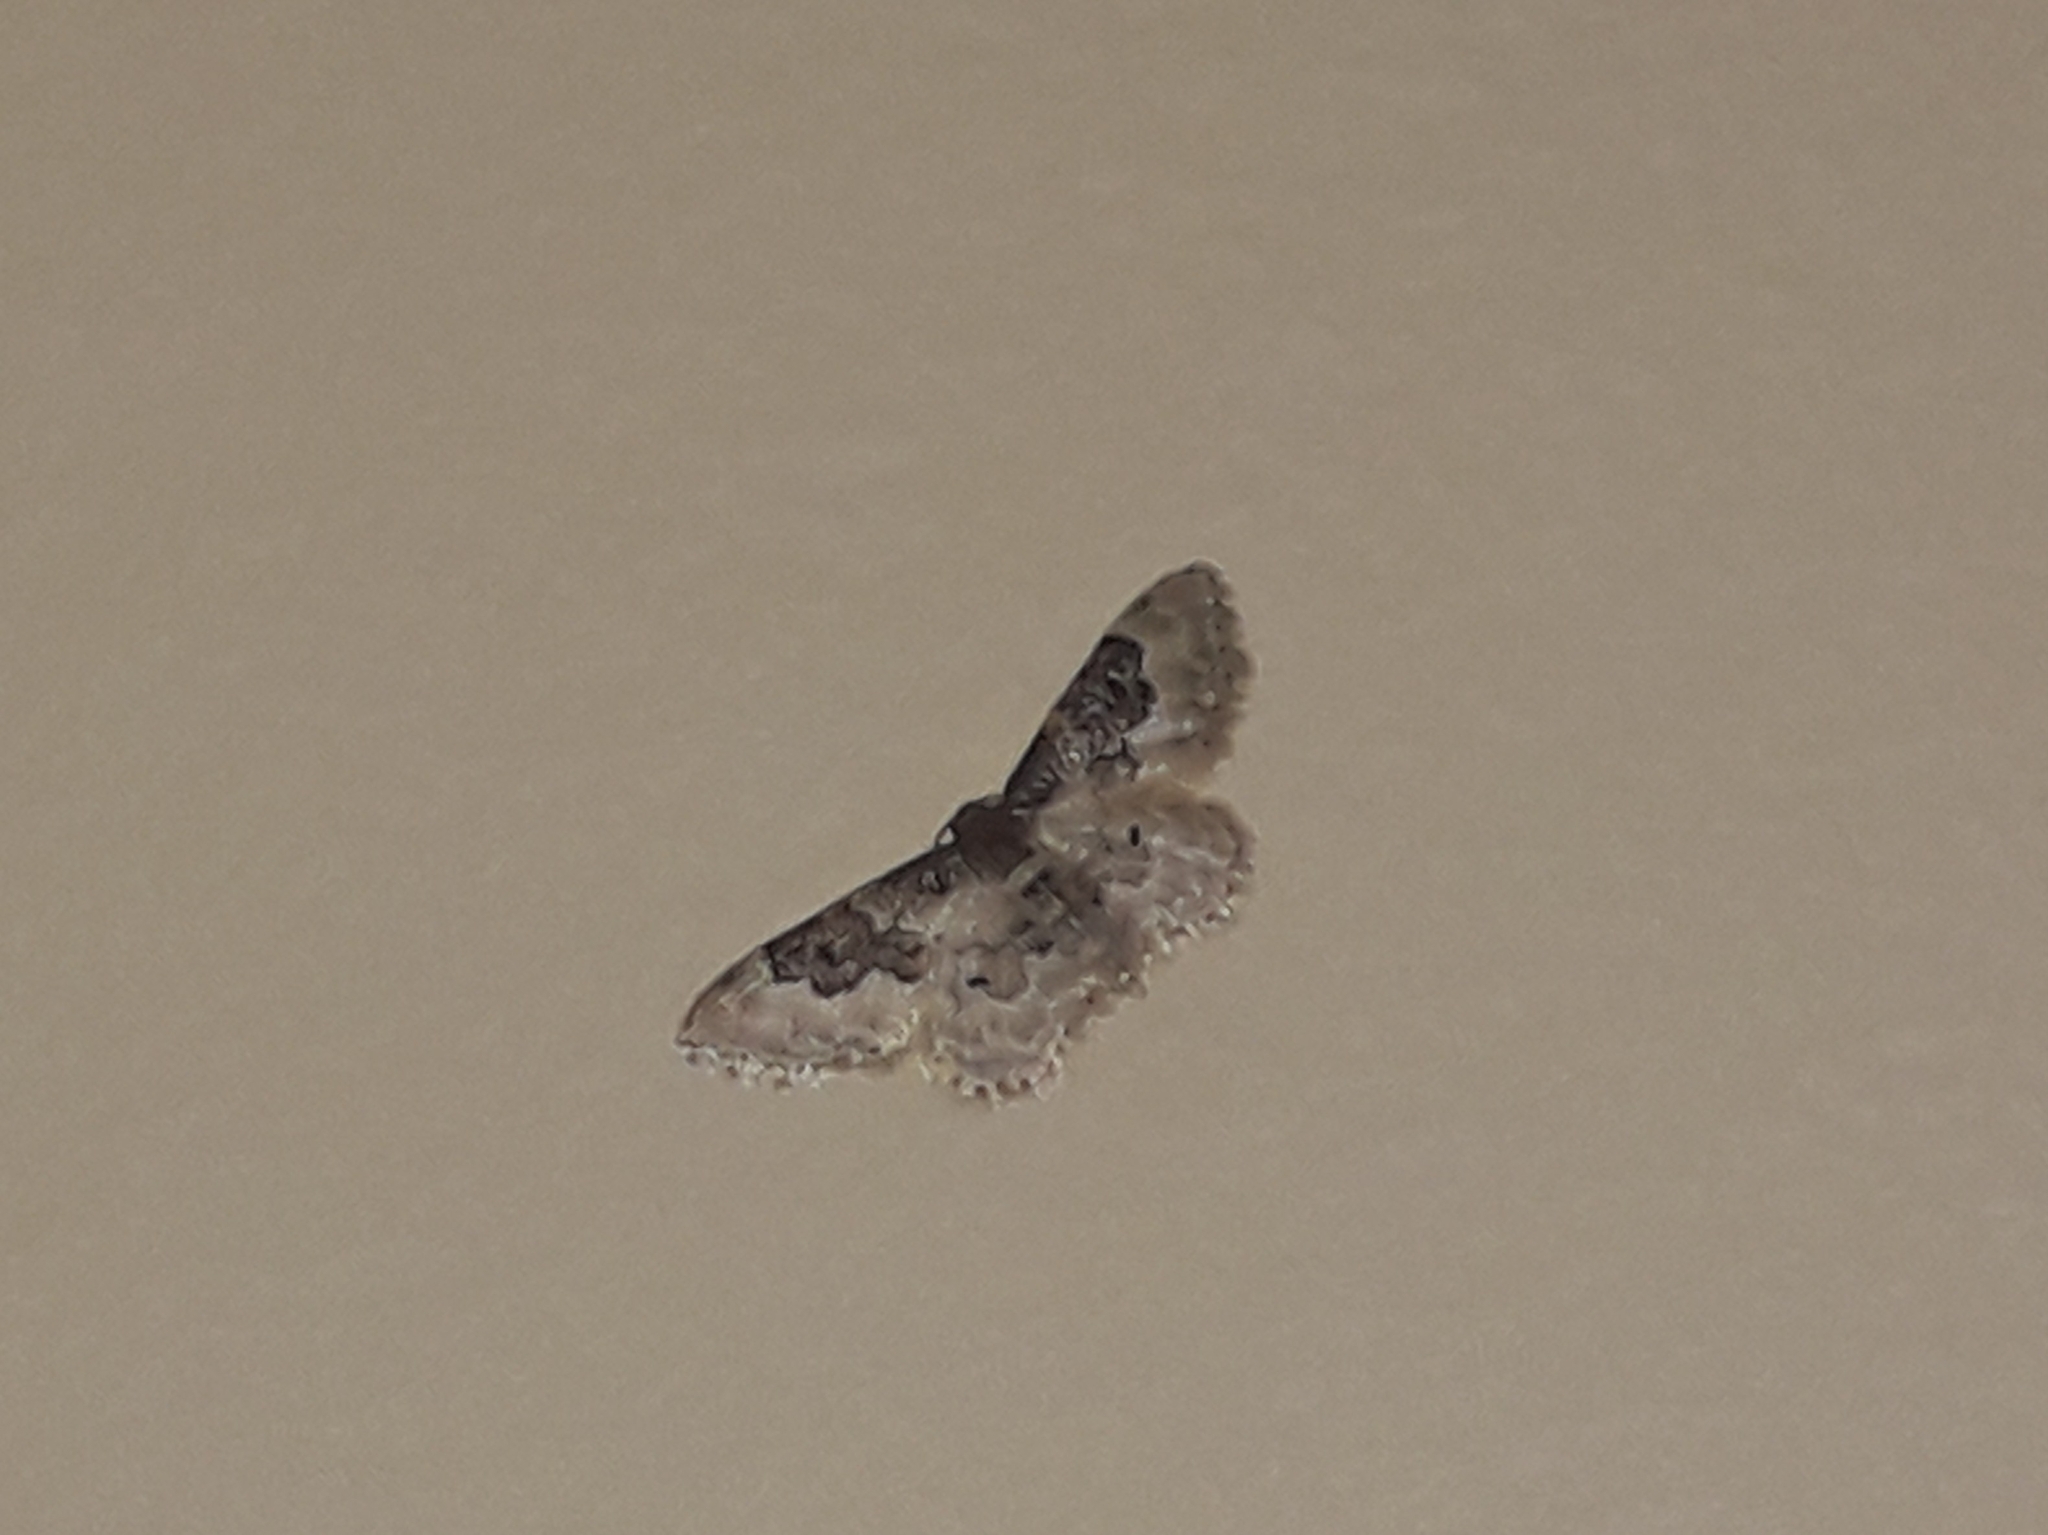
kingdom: Animalia
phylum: Arthropoda
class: Insecta
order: Lepidoptera
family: Geometridae
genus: Idaea
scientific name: Idaea rusticata
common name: Least carpet
